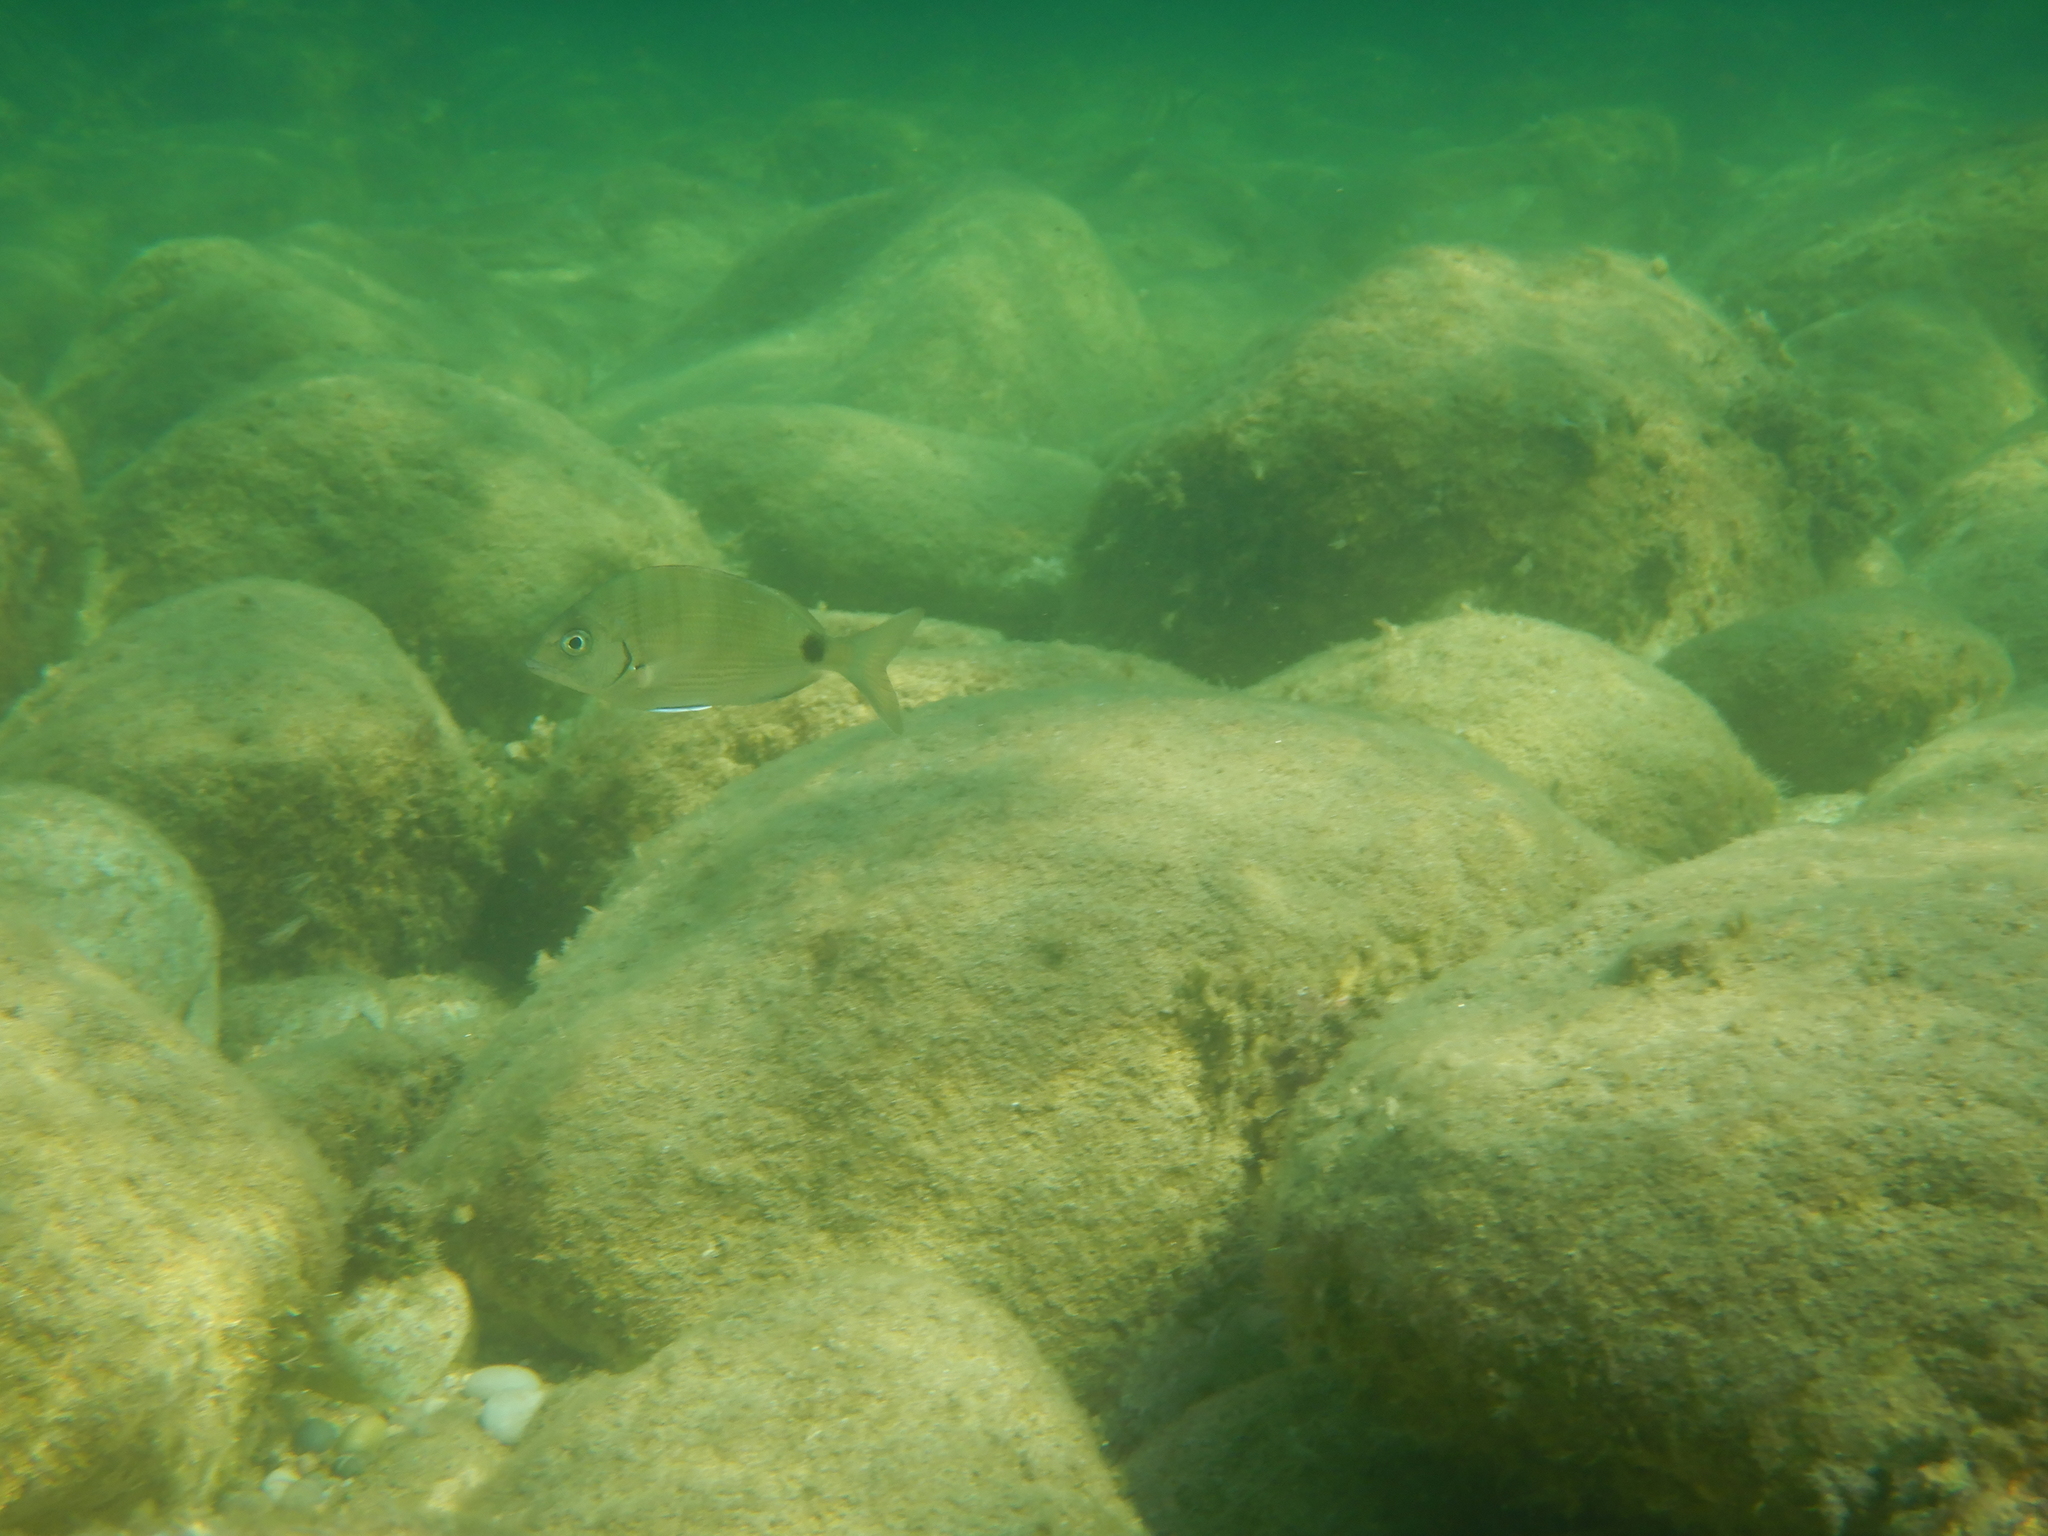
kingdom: Animalia
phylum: Chordata
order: Perciformes
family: Sparidae
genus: Diplodus
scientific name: Diplodus sargus
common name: White seabream
